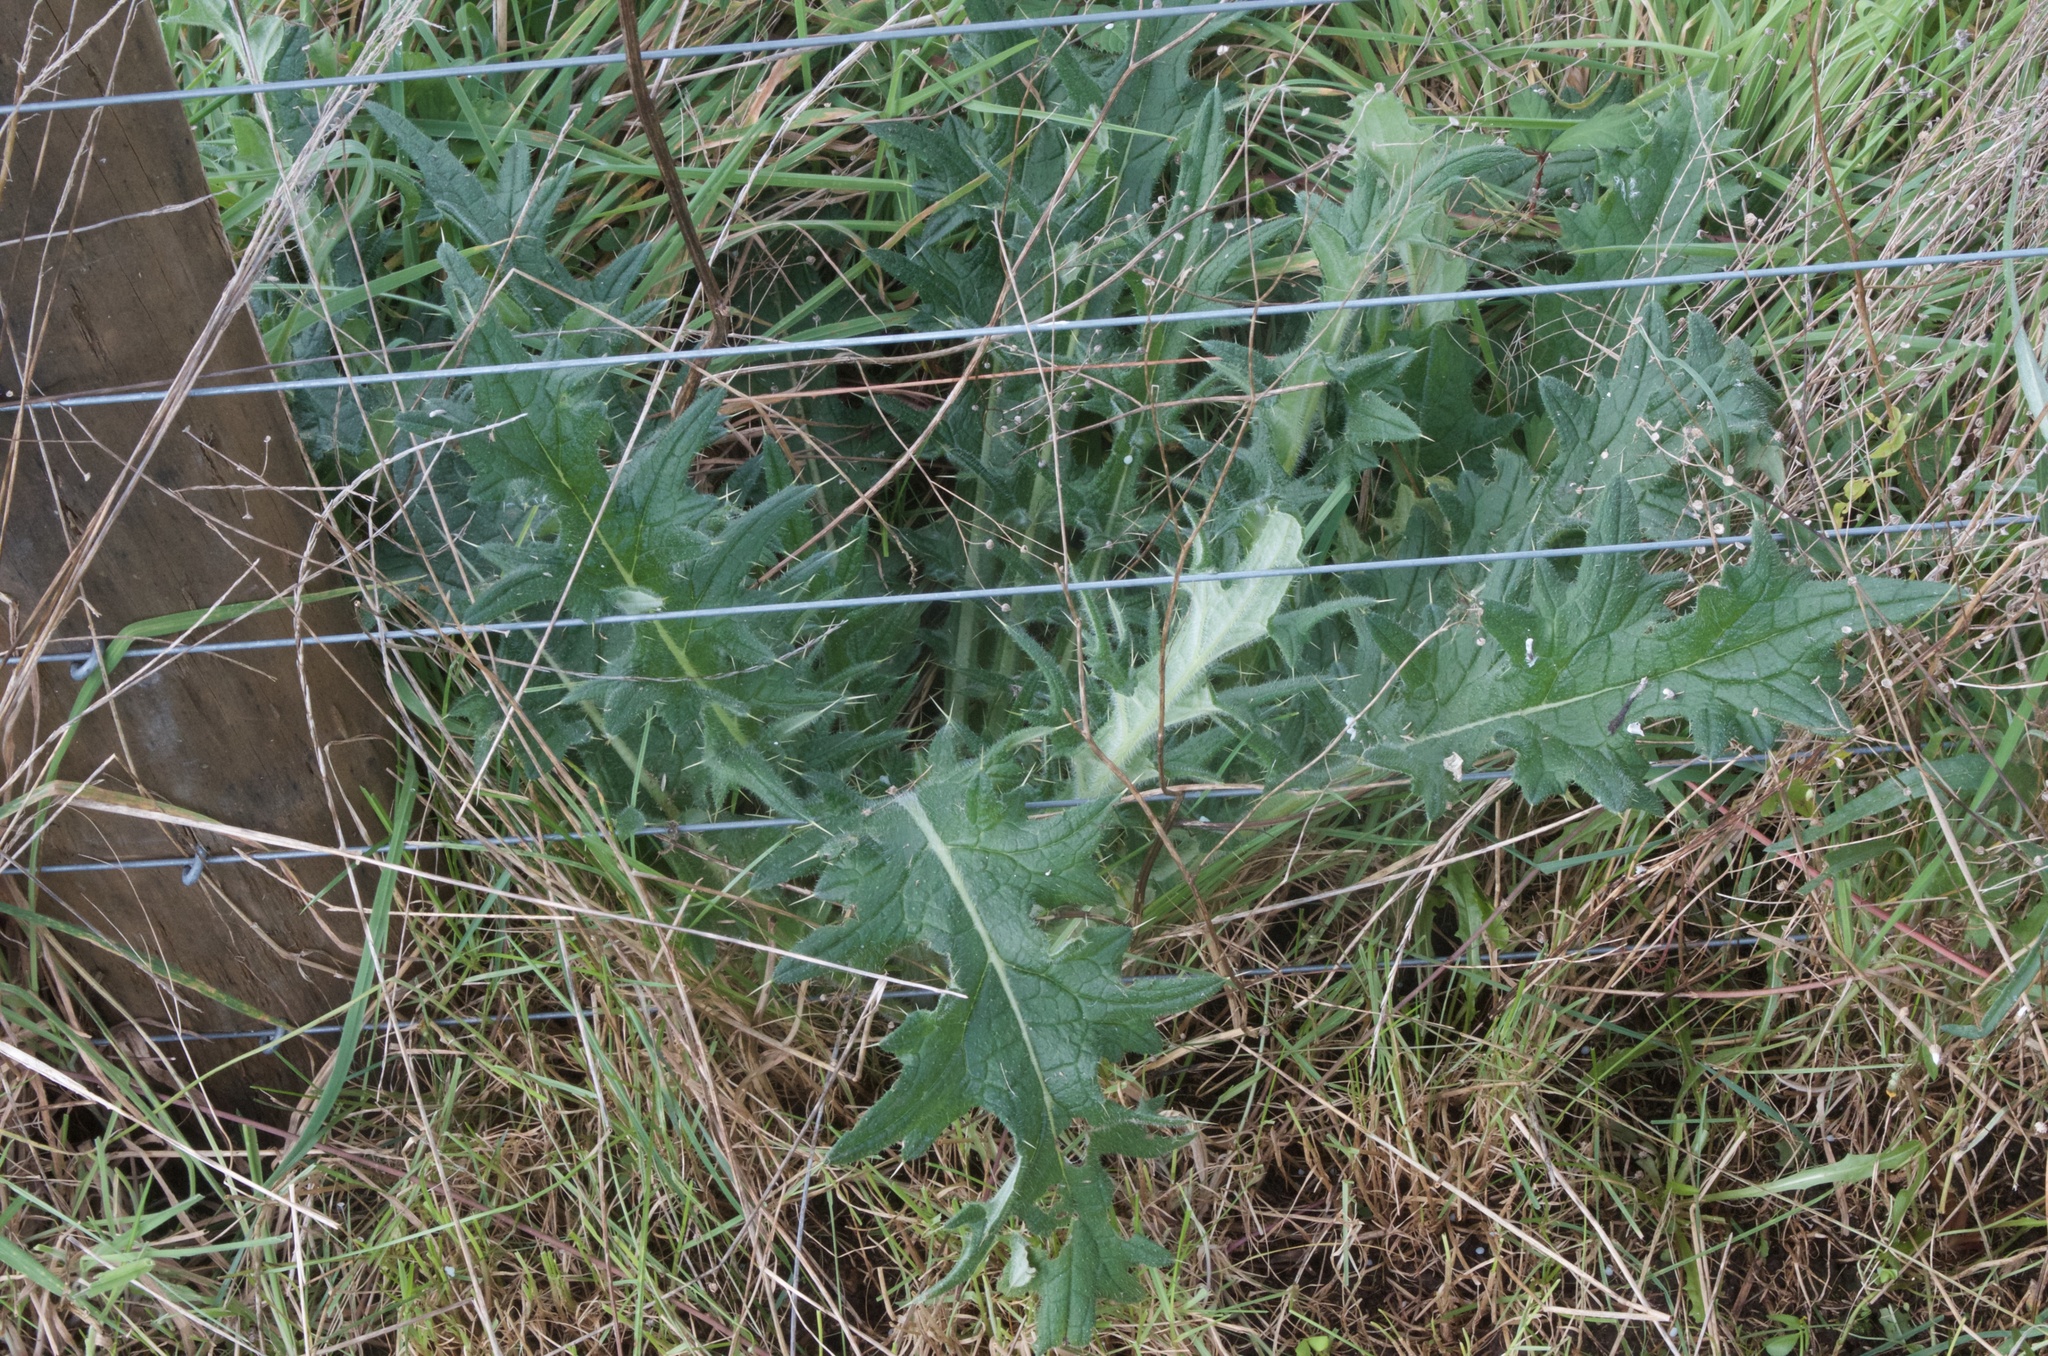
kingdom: Plantae
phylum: Tracheophyta
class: Magnoliopsida
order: Asterales
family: Asteraceae
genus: Cirsium
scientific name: Cirsium vulgare
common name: Bull thistle
